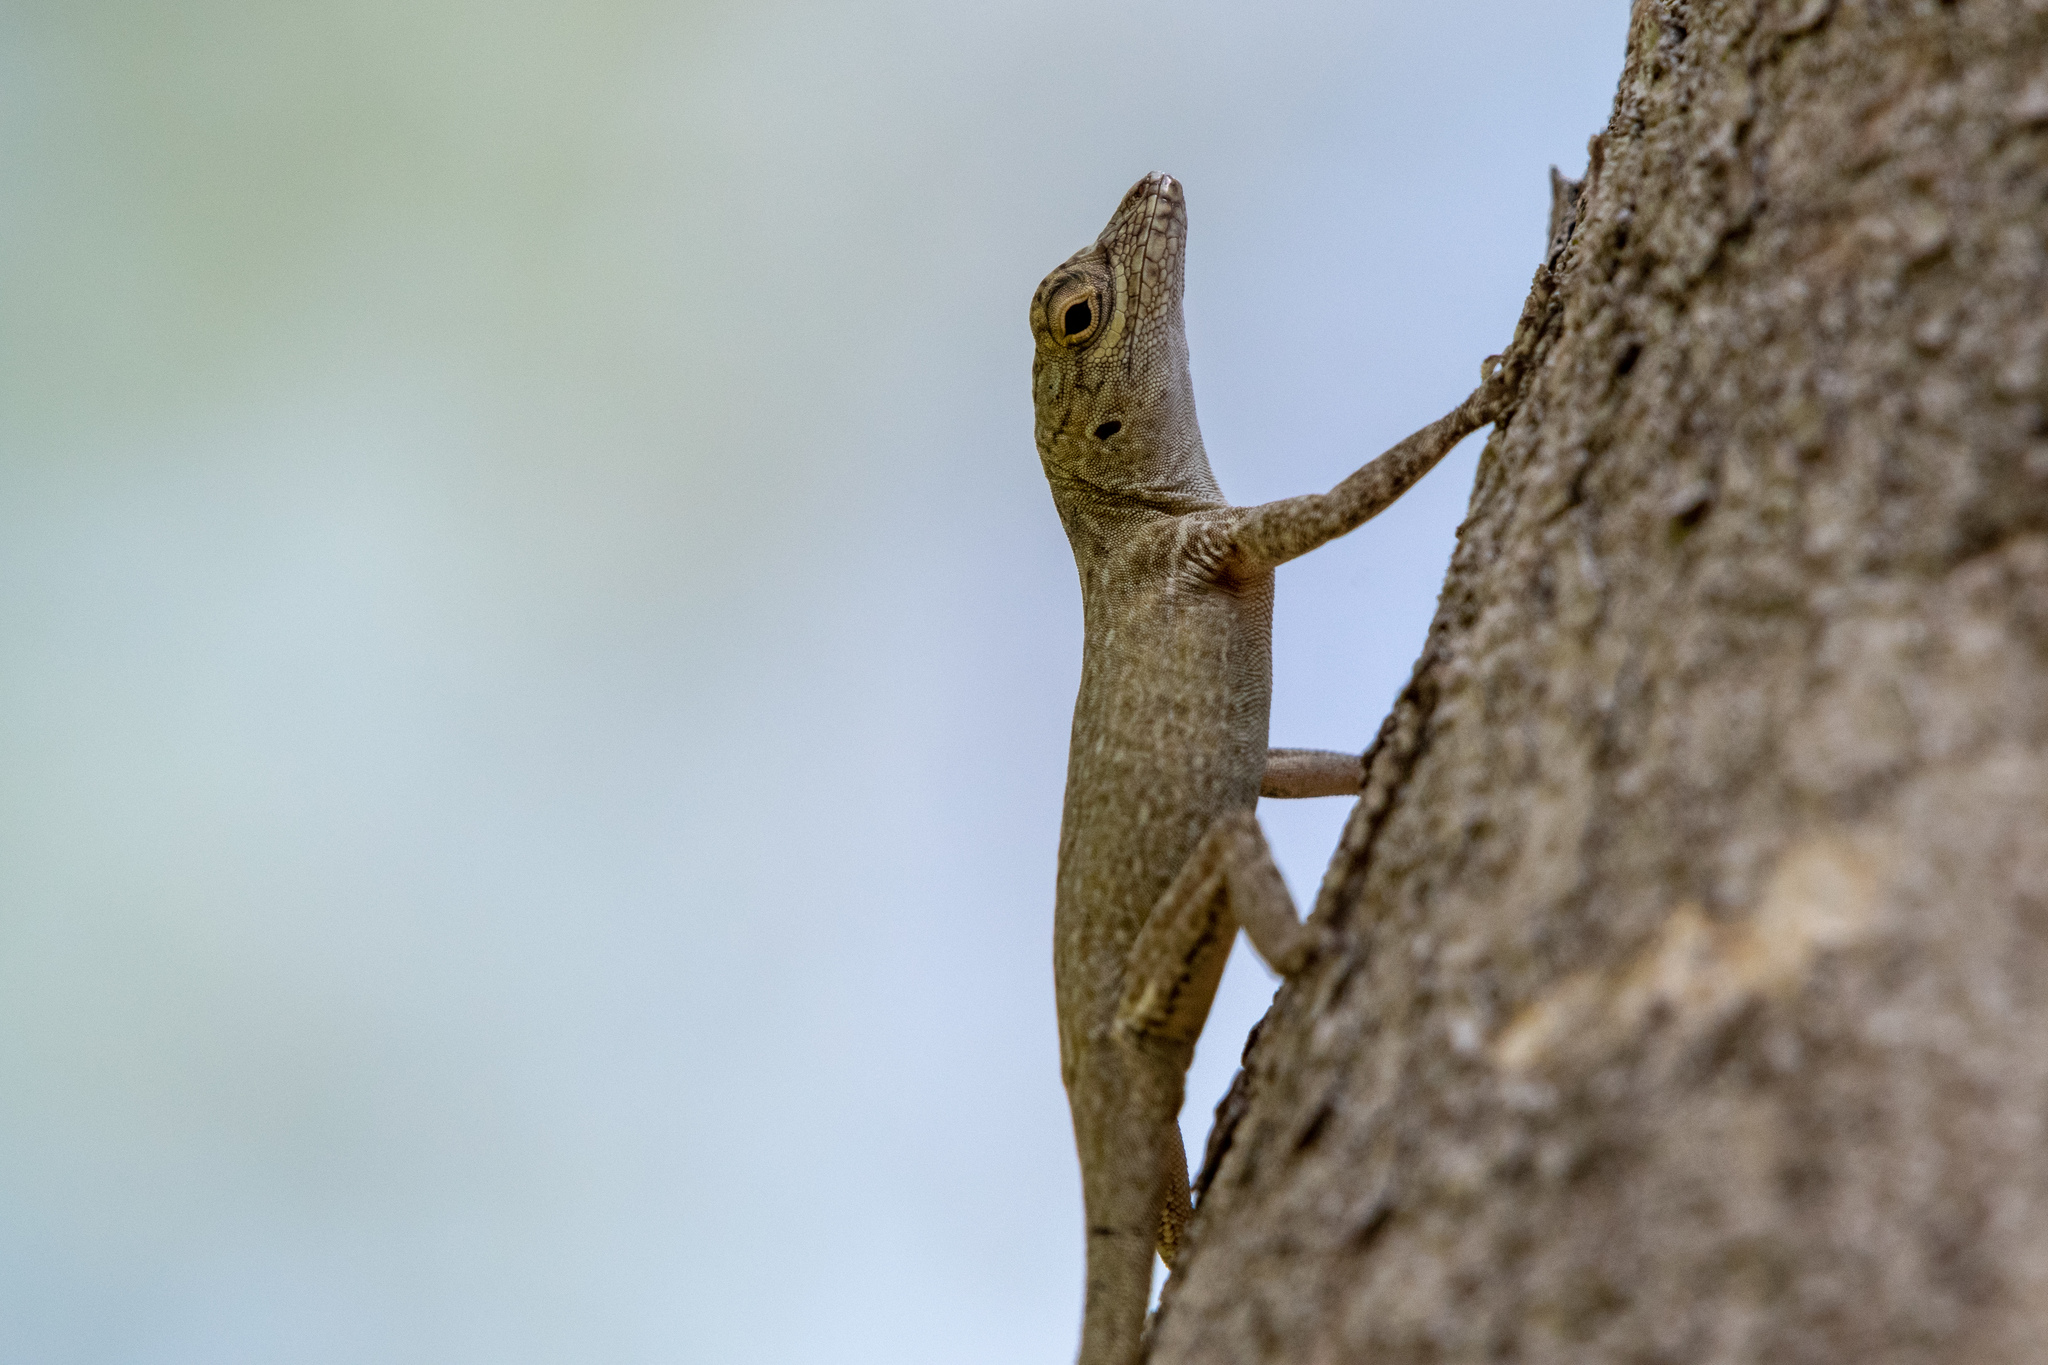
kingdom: Animalia
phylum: Chordata
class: Squamata
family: Dactyloidae
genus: Anolis
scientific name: Anolis distichus
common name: Bark anole
